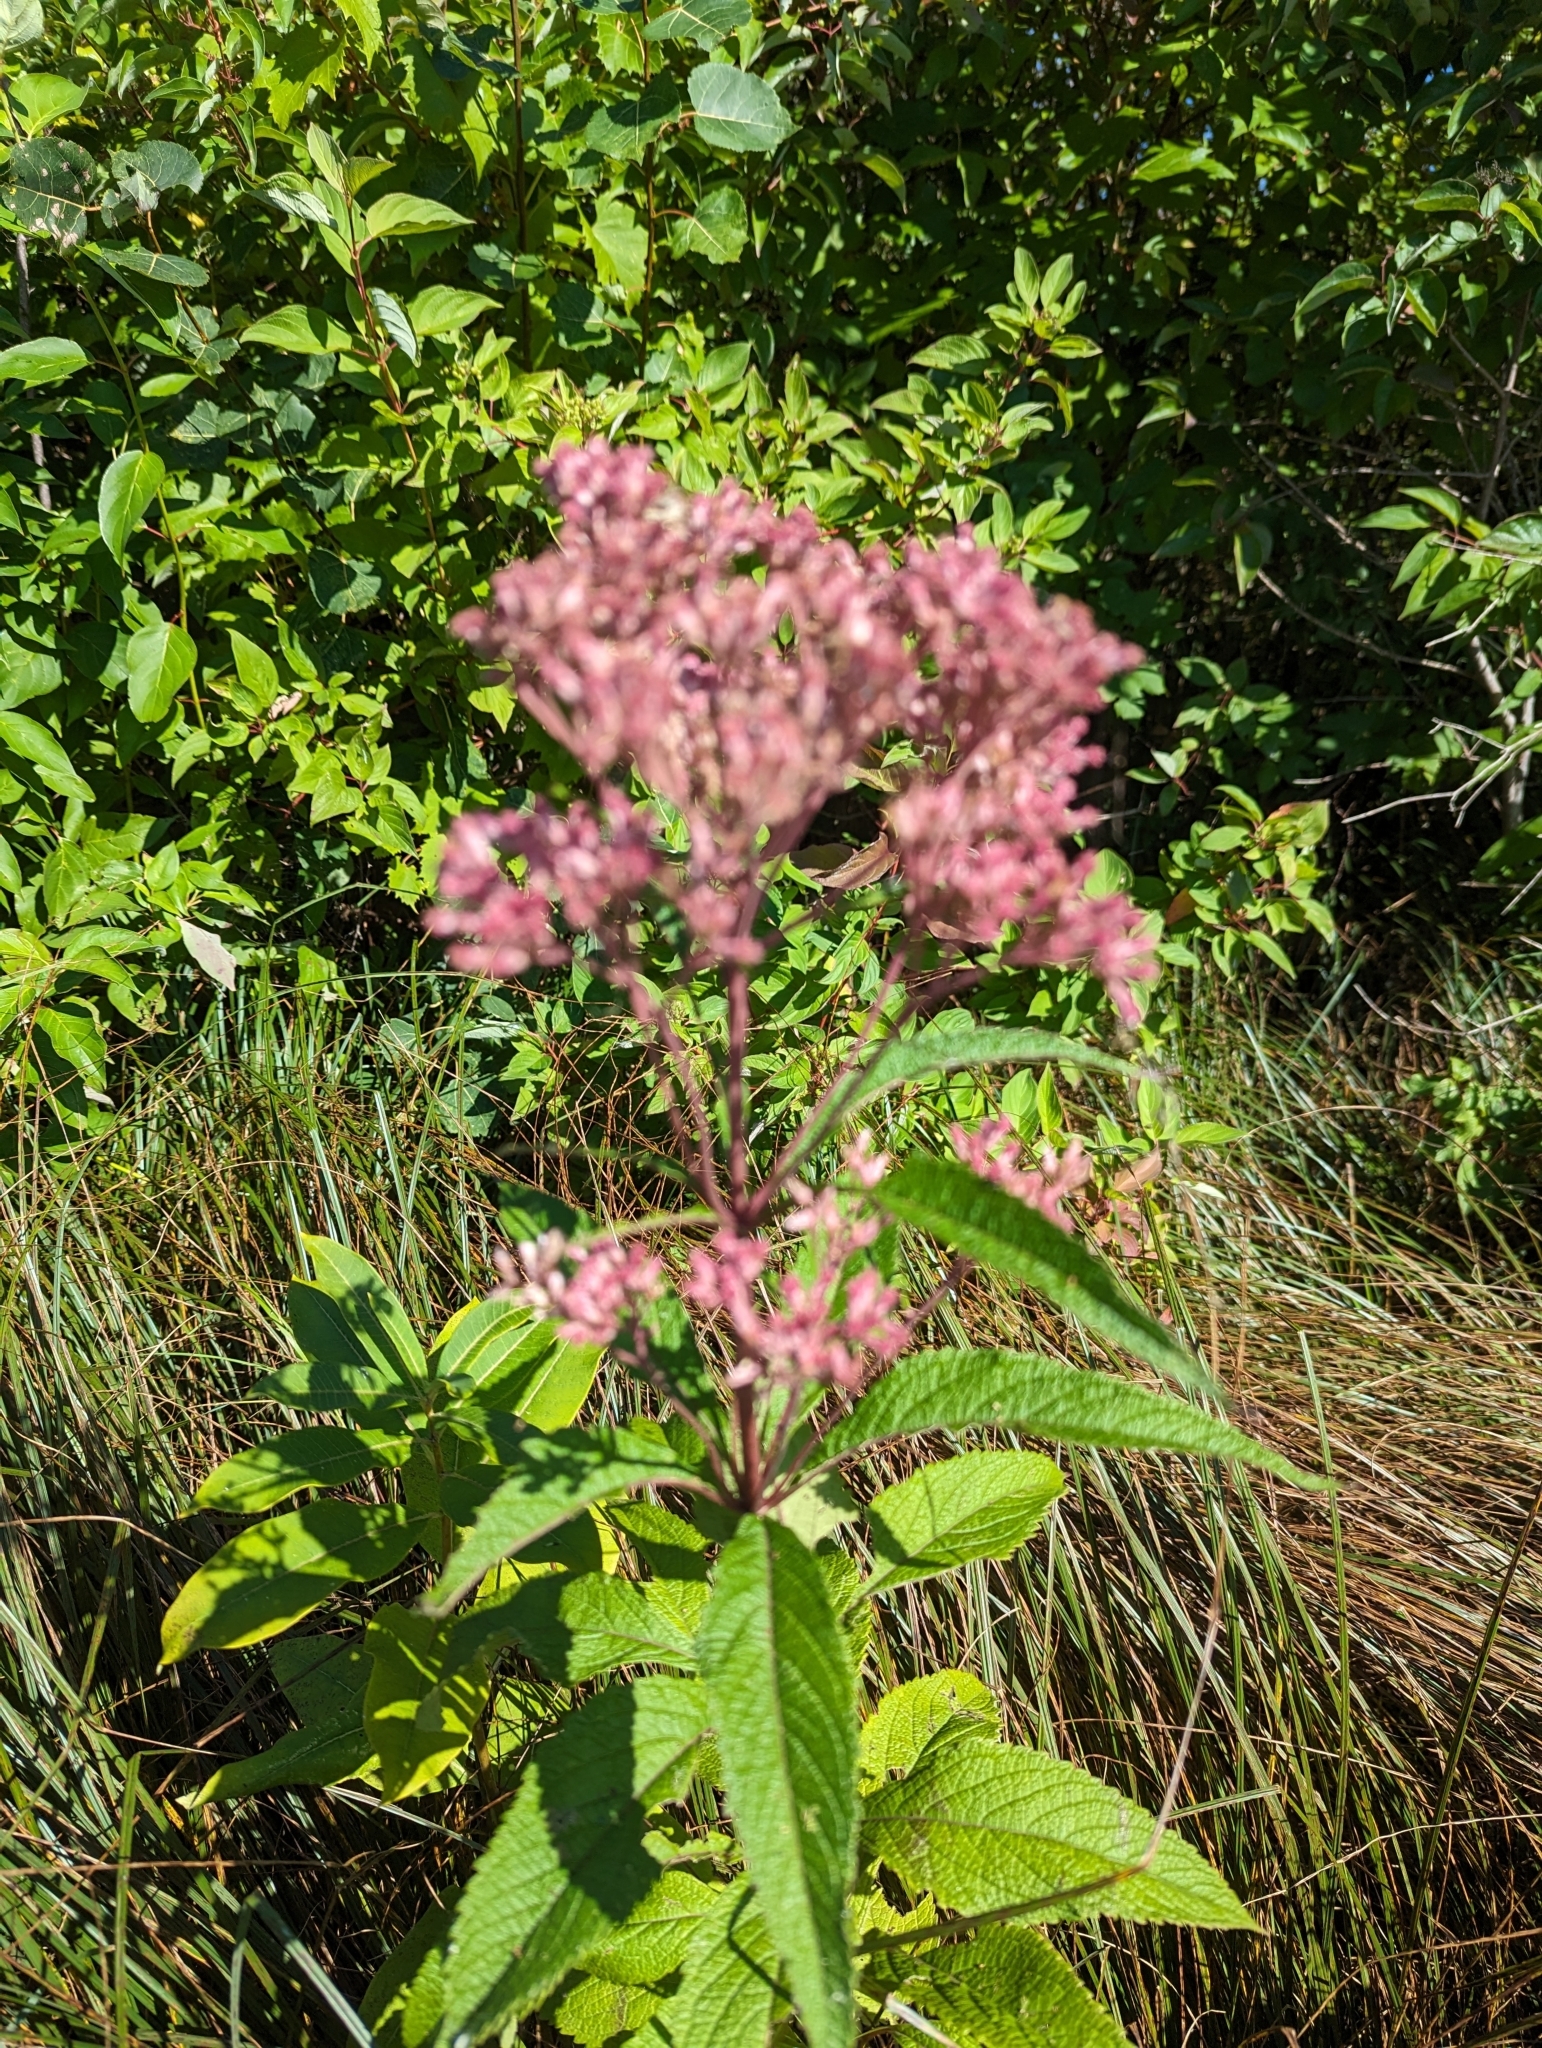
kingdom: Plantae
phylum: Tracheophyta
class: Magnoliopsida
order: Asterales
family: Asteraceae
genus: Eutrochium
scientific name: Eutrochium maculatum
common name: Spotted joe pye weed
